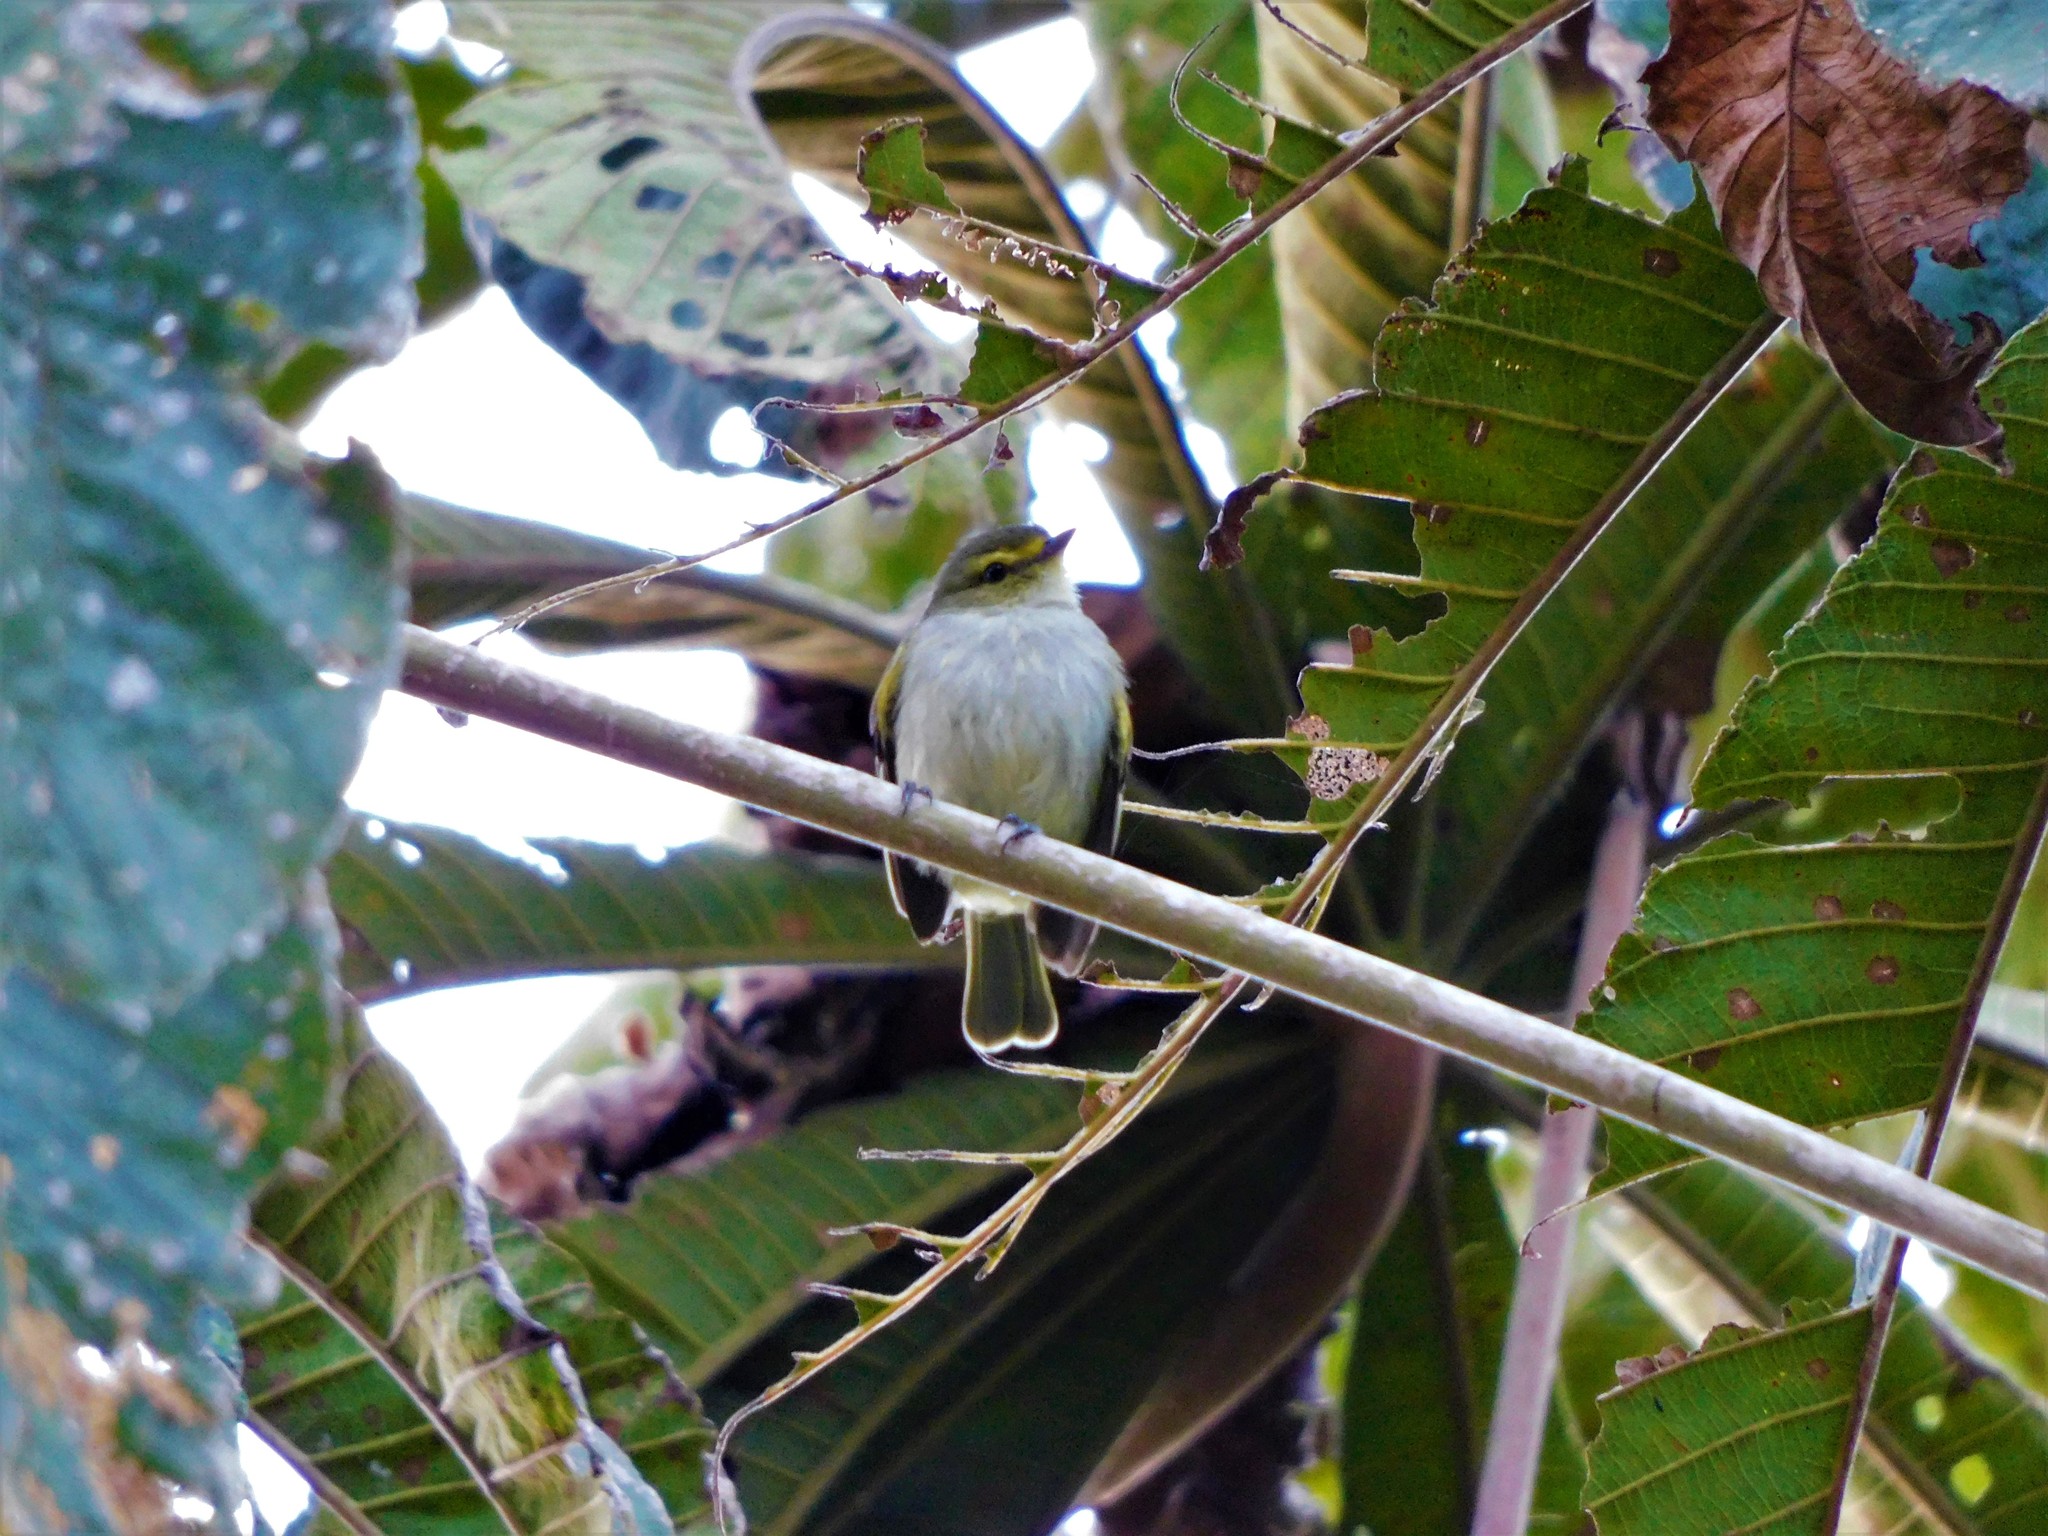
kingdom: Animalia
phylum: Chordata
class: Aves
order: Passeriformes
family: Tyrannidae
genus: Zimmerius
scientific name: Zimmerius chrysops
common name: Golden-faced tyrannulet
